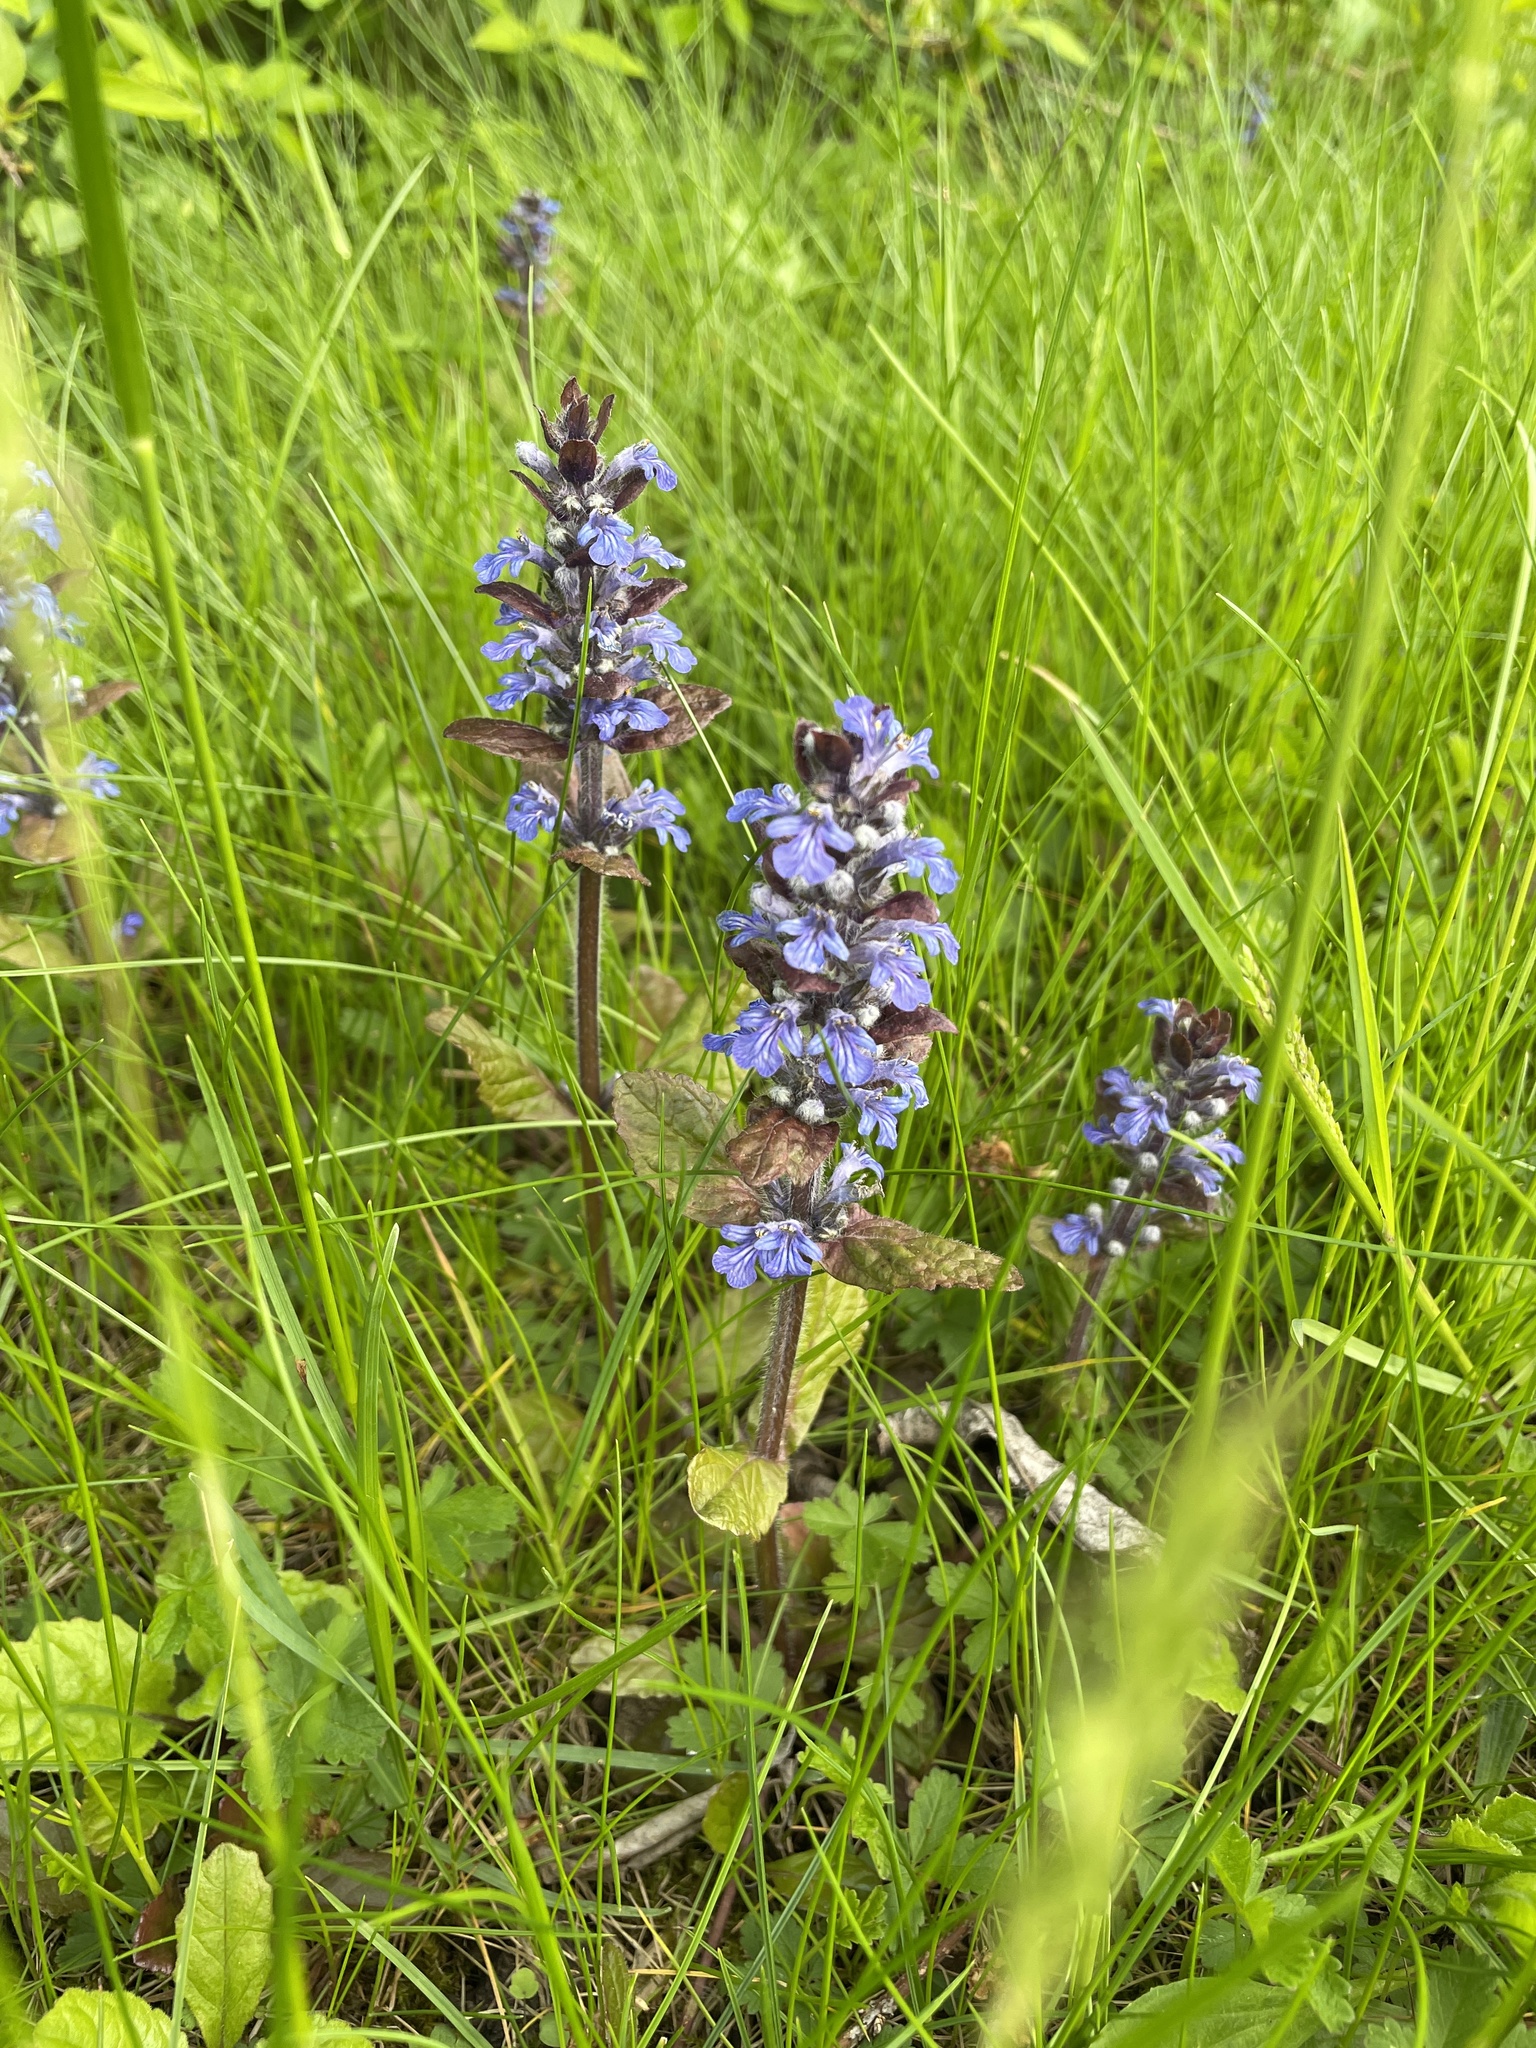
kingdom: Plantae
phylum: Tracheophyta
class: Magnoliopsida
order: Lamiales
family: Lamiaceae
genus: Ajuga
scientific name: Ajuga reptans
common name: Bugle
